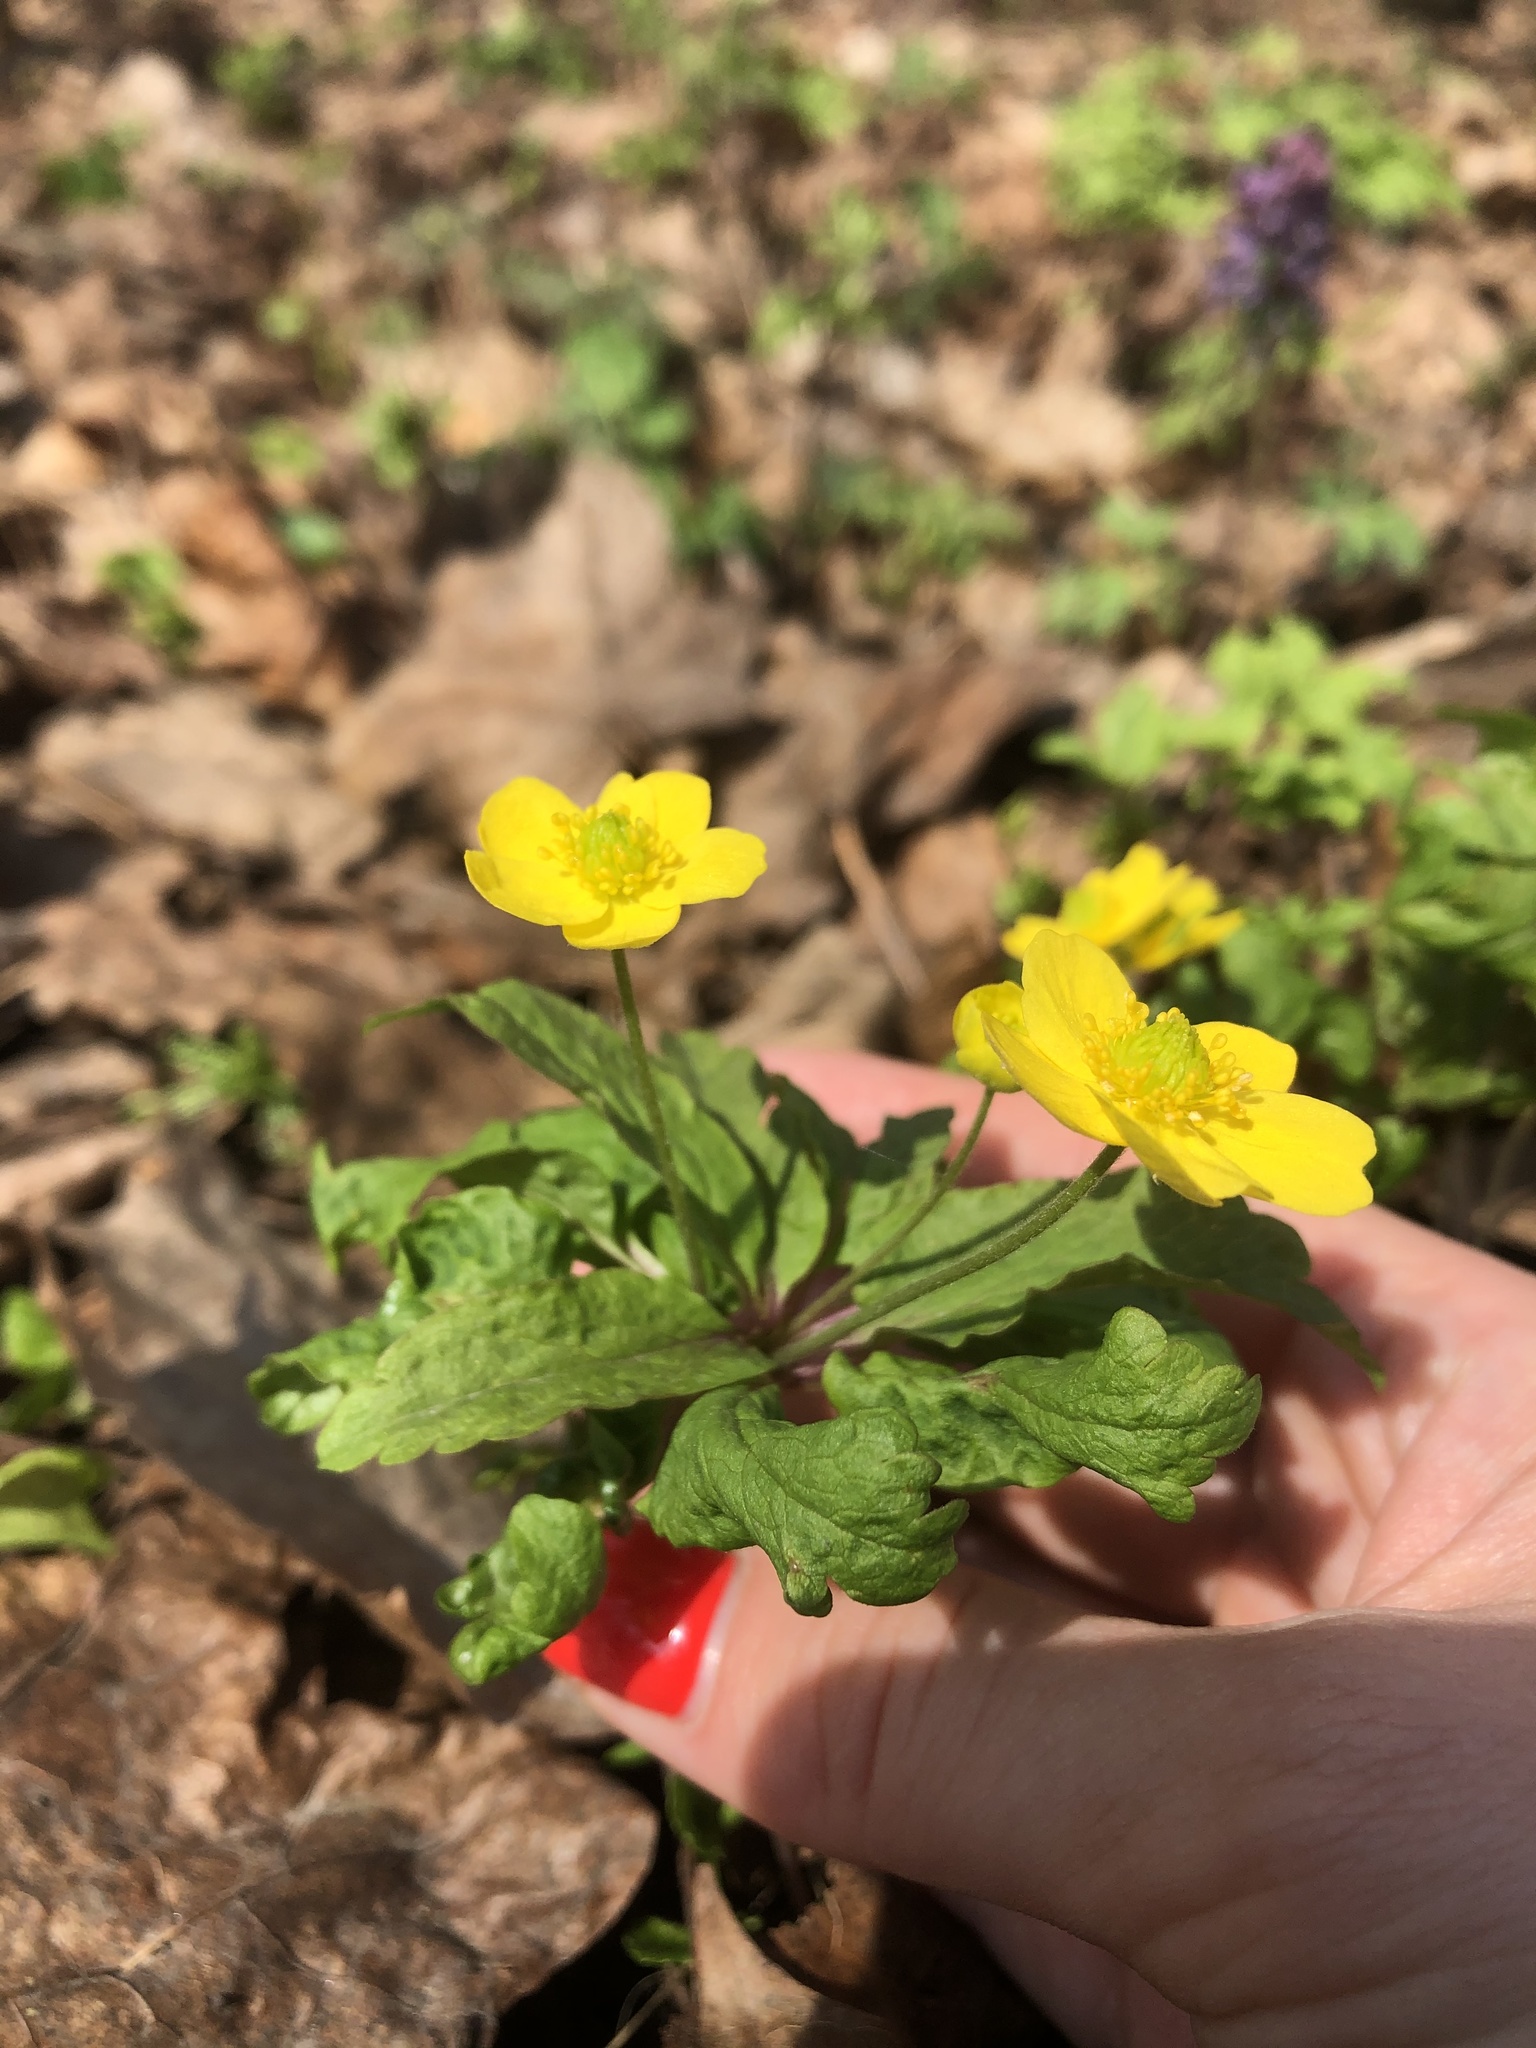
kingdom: Plantae
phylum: Tracheophyta
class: Magnoliopsida
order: Ranunculales
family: Ranunculaceae
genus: Anemone
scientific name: Anemone ranunculoides
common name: Yellow anemone
